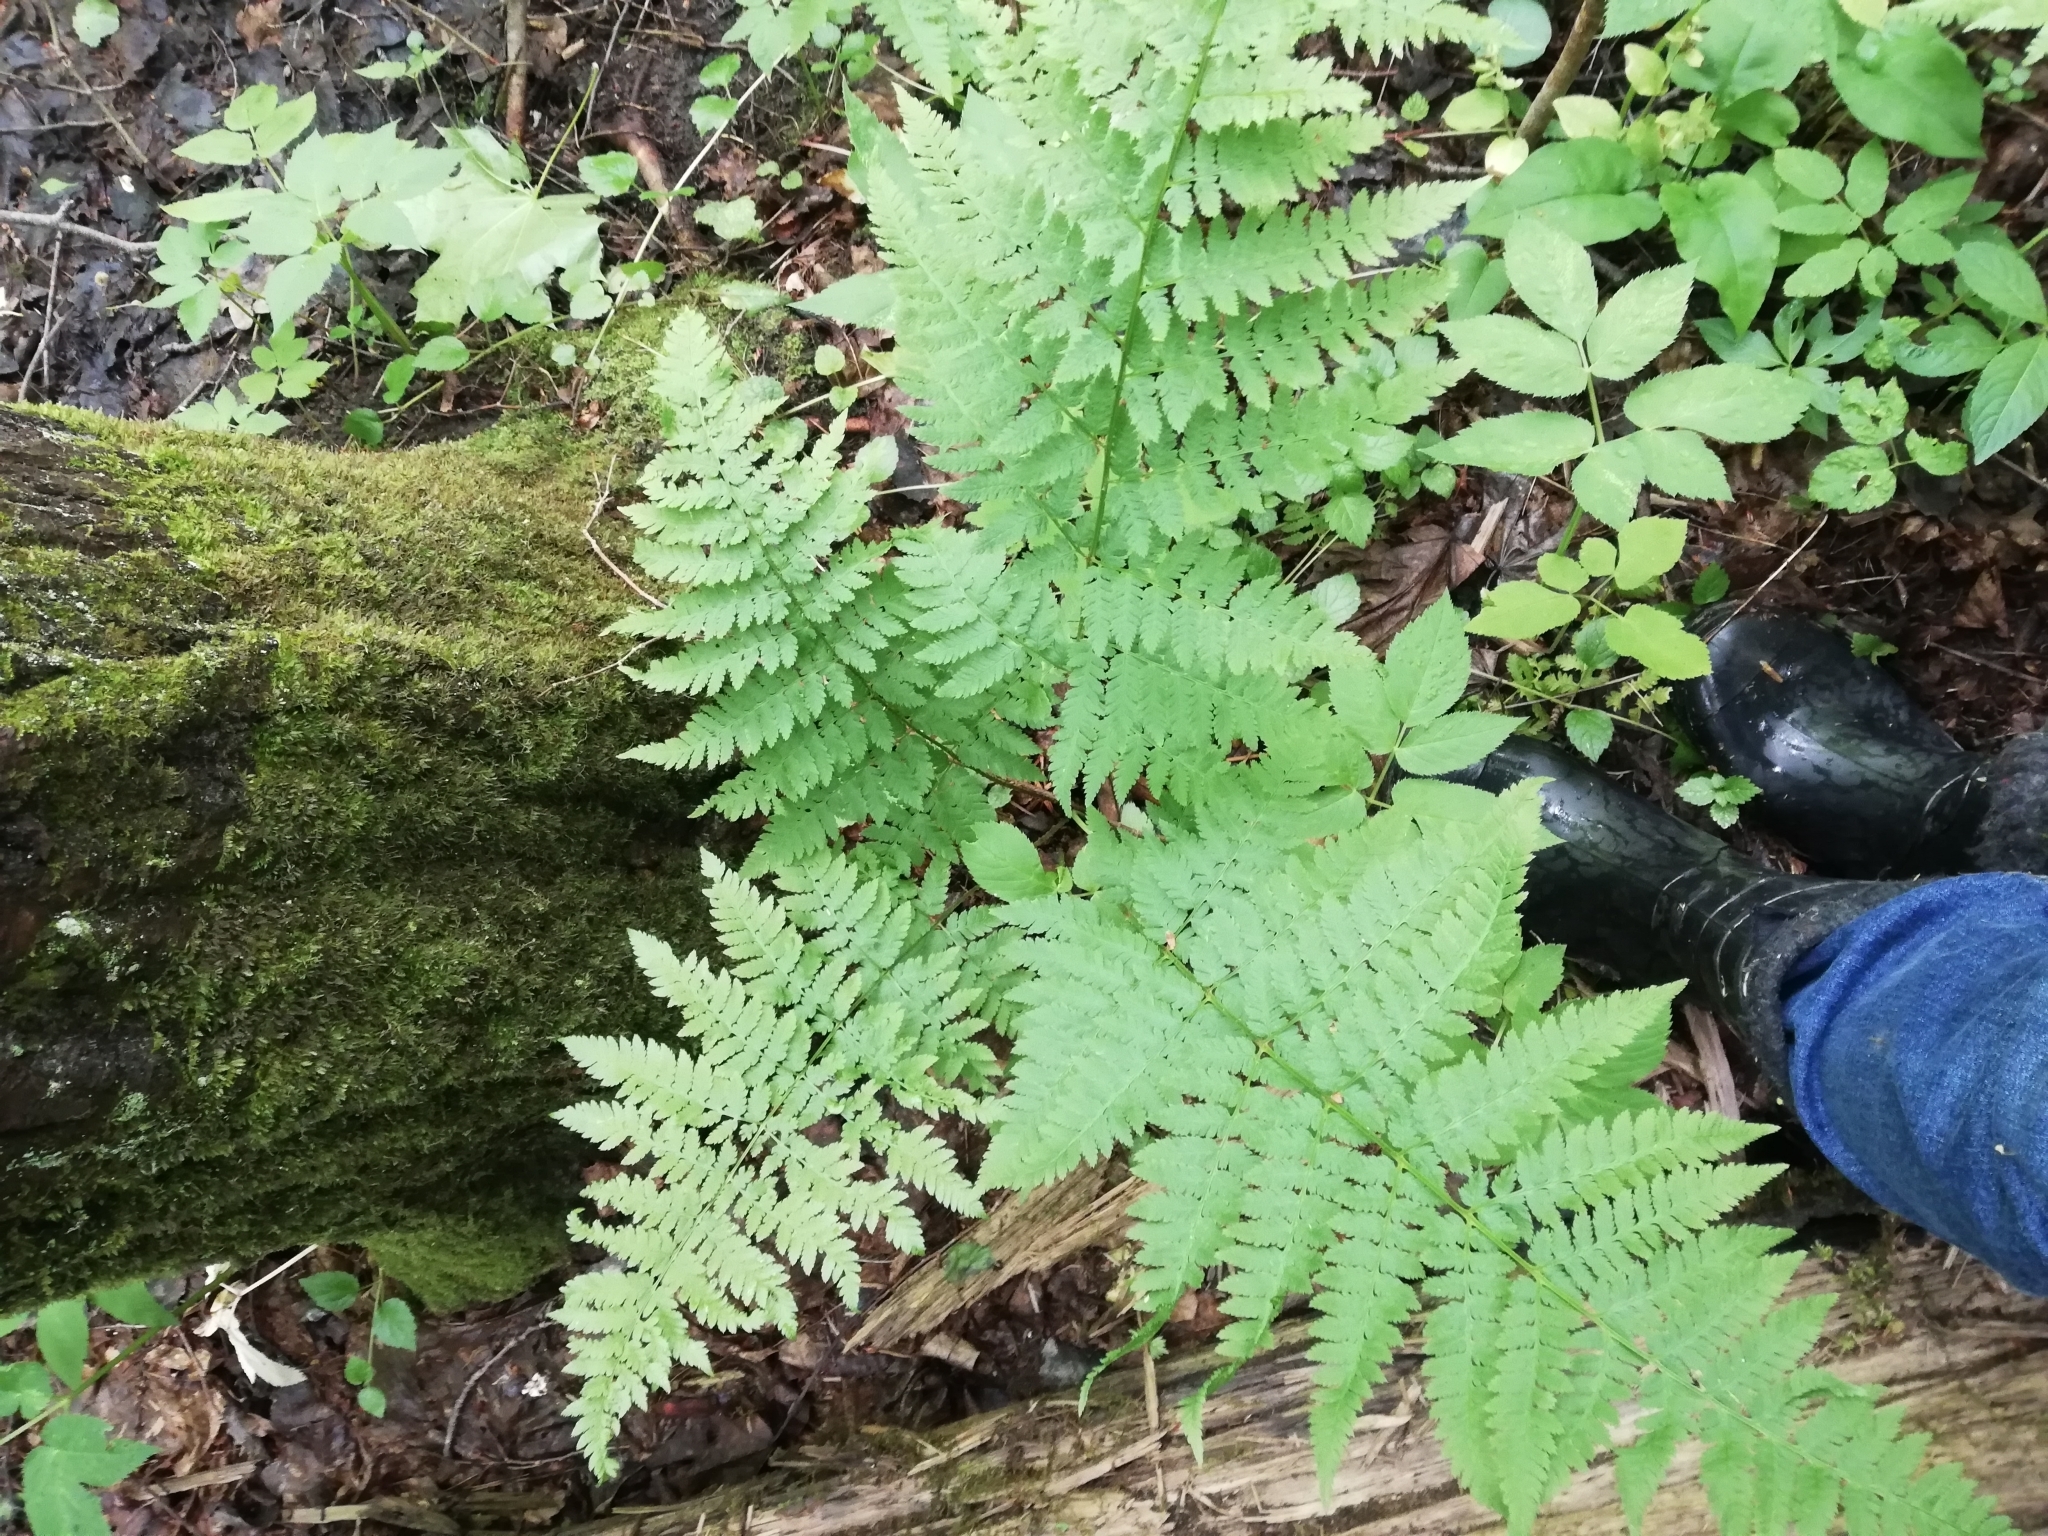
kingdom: Plantae
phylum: Tracheophyta
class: Polypodiopsida
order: Polypodiales
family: Dryopteridaceae
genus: Dryopteris
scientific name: Dryopteris carthusiana
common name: Narrow buckler-fern
